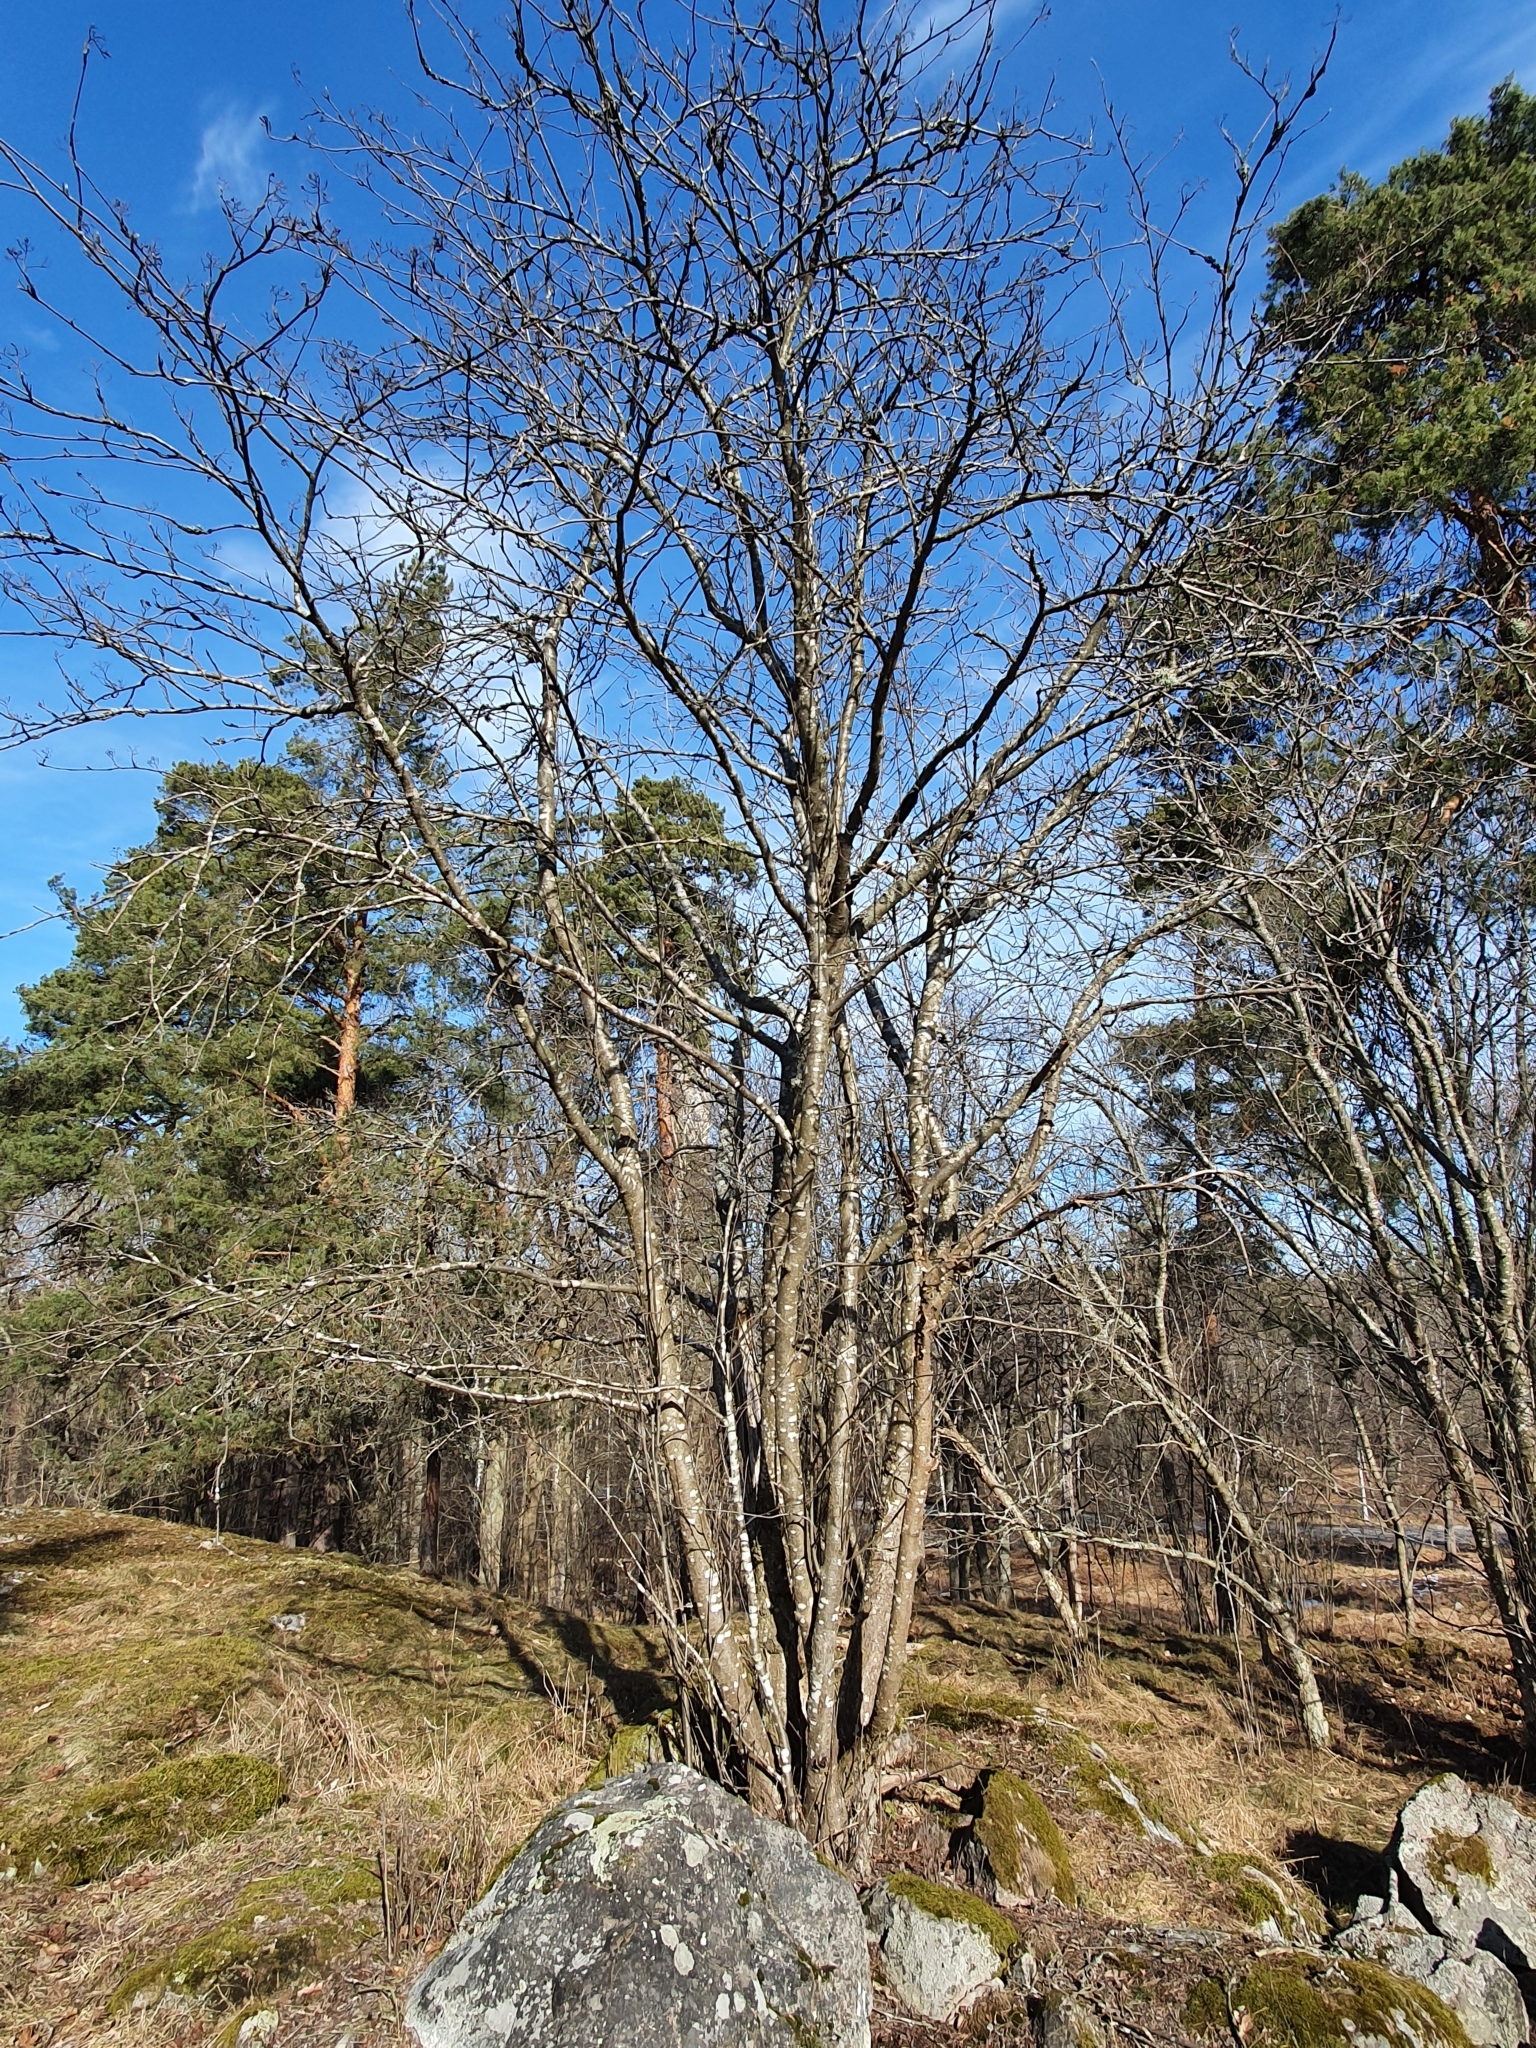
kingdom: Plantae
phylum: Tracheophyta
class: Magnoliopsida
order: Rosales
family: Rosaceae
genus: Sorbus
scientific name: Sorbus aucuparia
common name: Rowan
